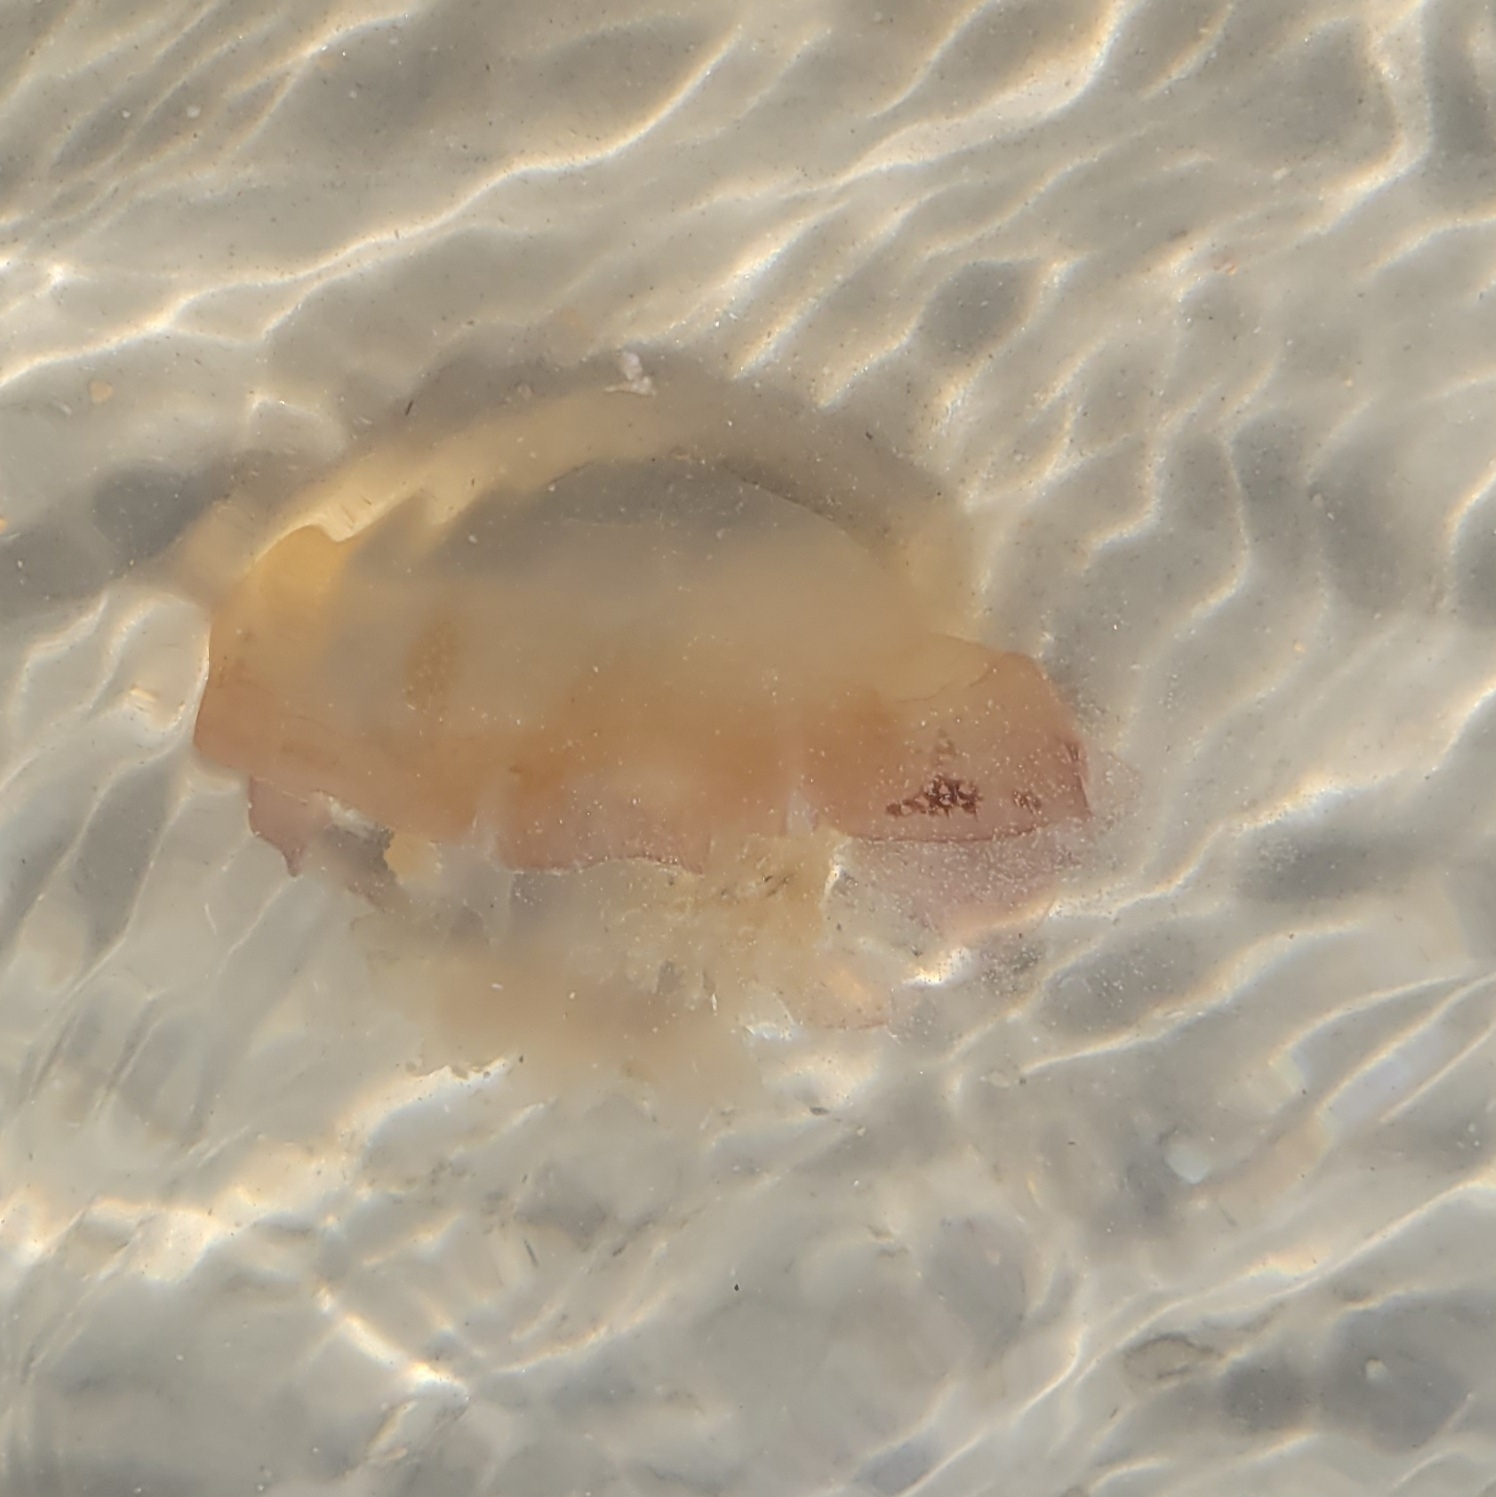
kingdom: Animalia
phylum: Cnidaria
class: Scyphozoa
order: Rhizostomeae
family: Stomolophidae
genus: Stomolophus
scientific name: Stomolophus meleagris
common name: Cabbagehead
